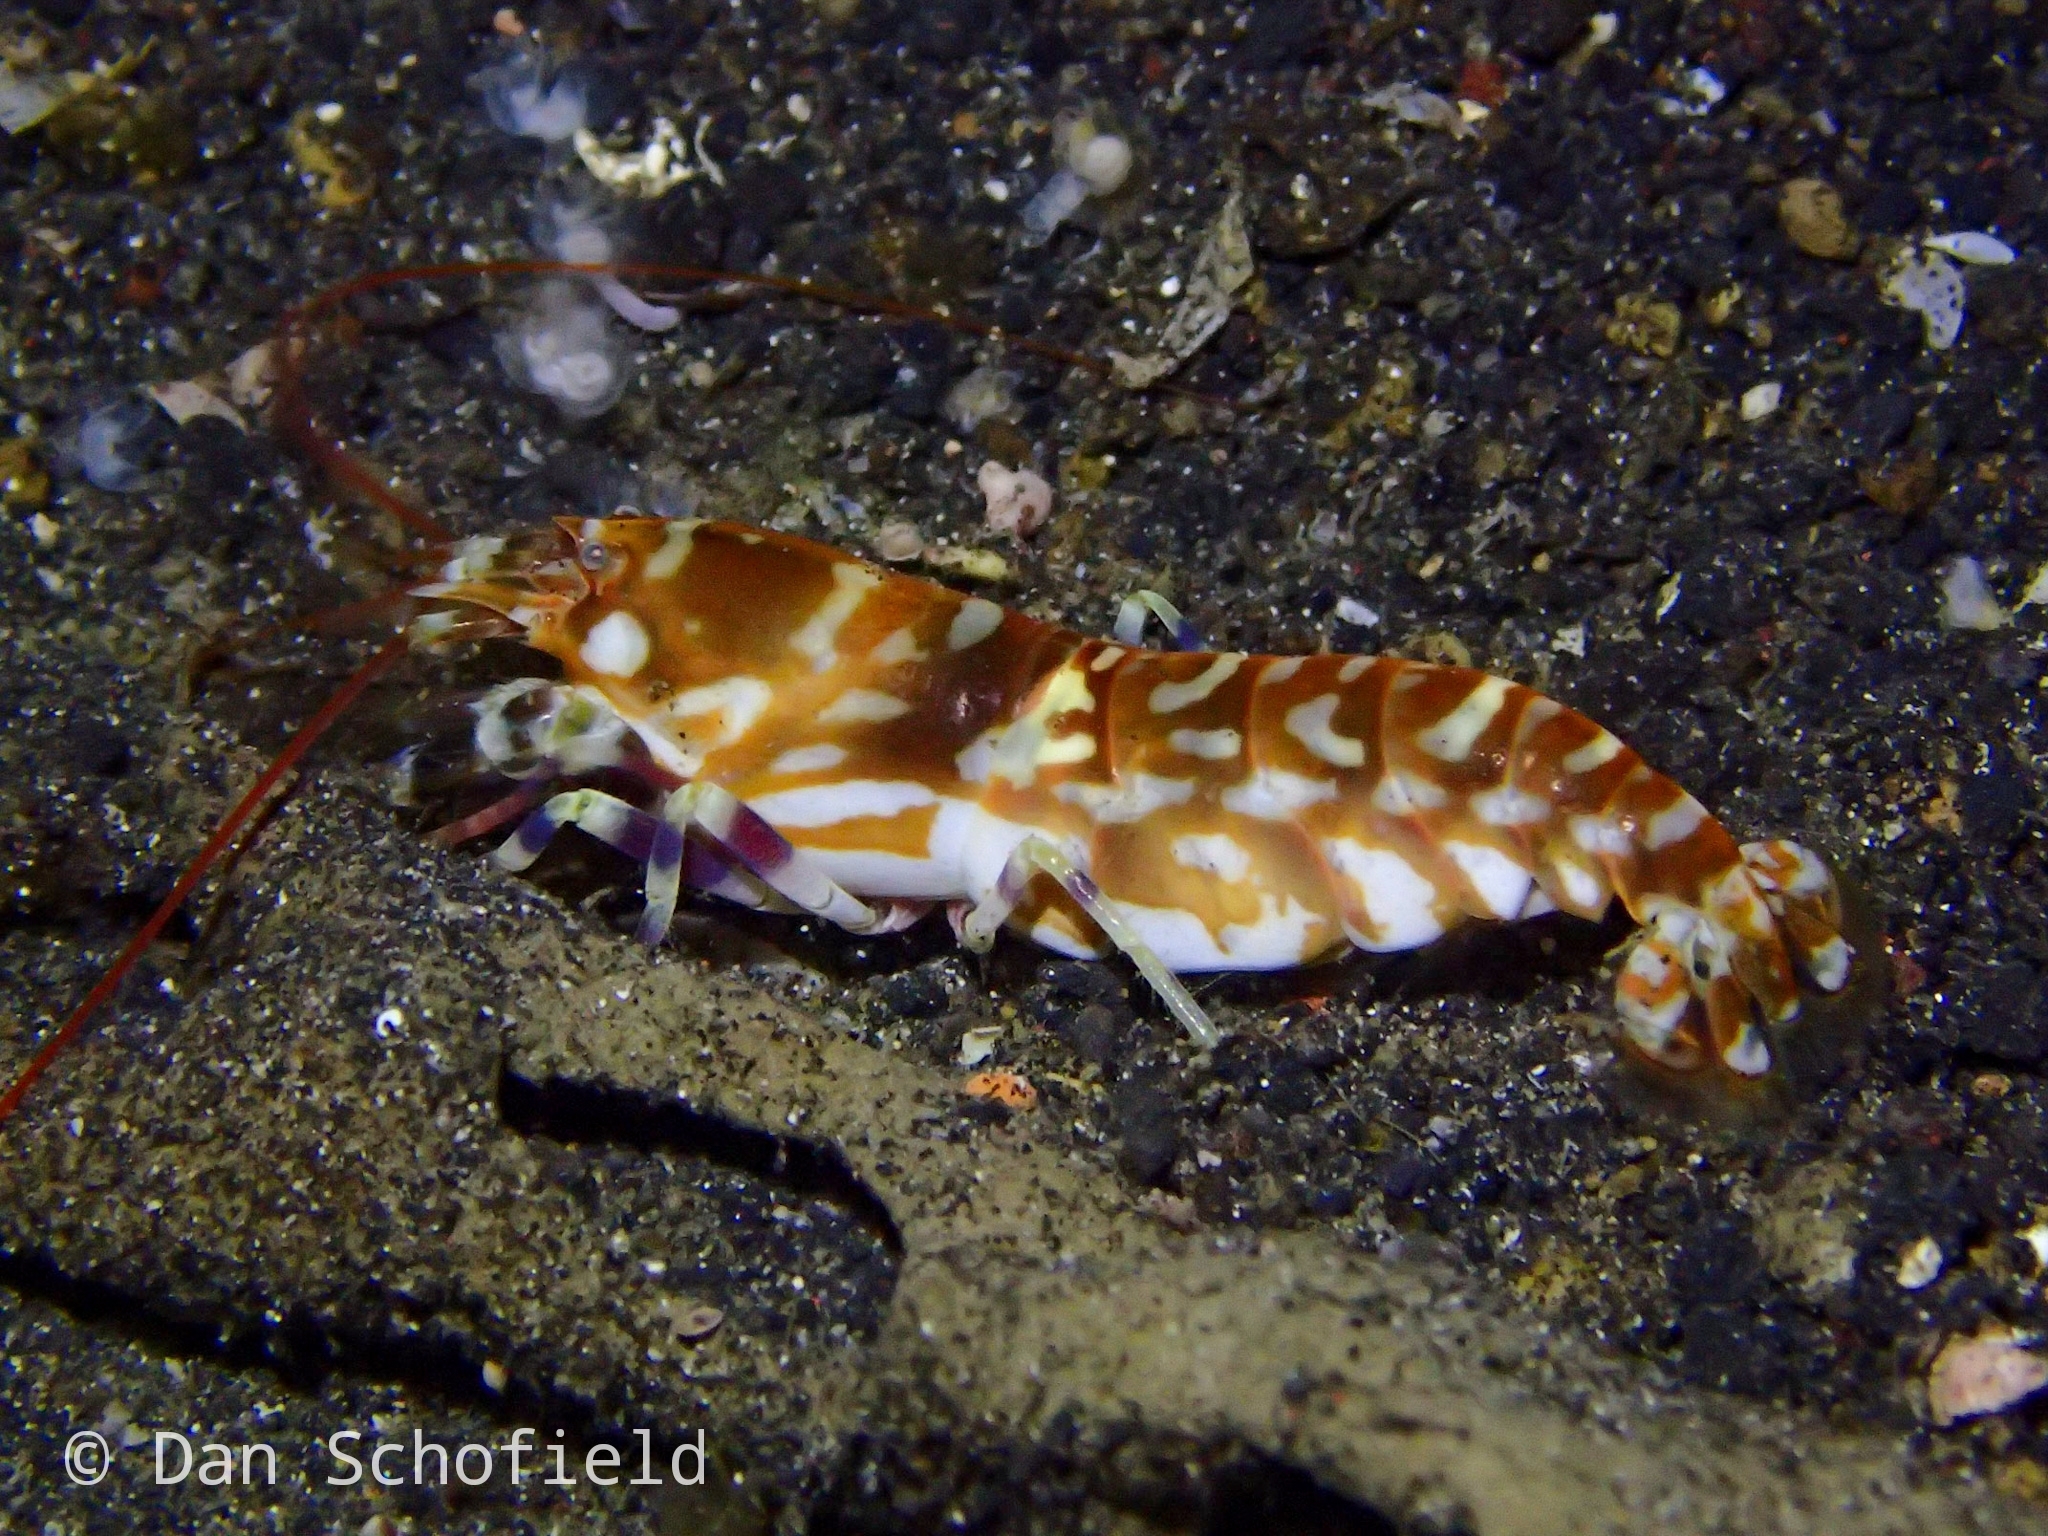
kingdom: Animalia
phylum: Arthropoda
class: Malacostraca
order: Decapoda
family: Alpheidae
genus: Alpheus
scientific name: Alpheus bellulus
